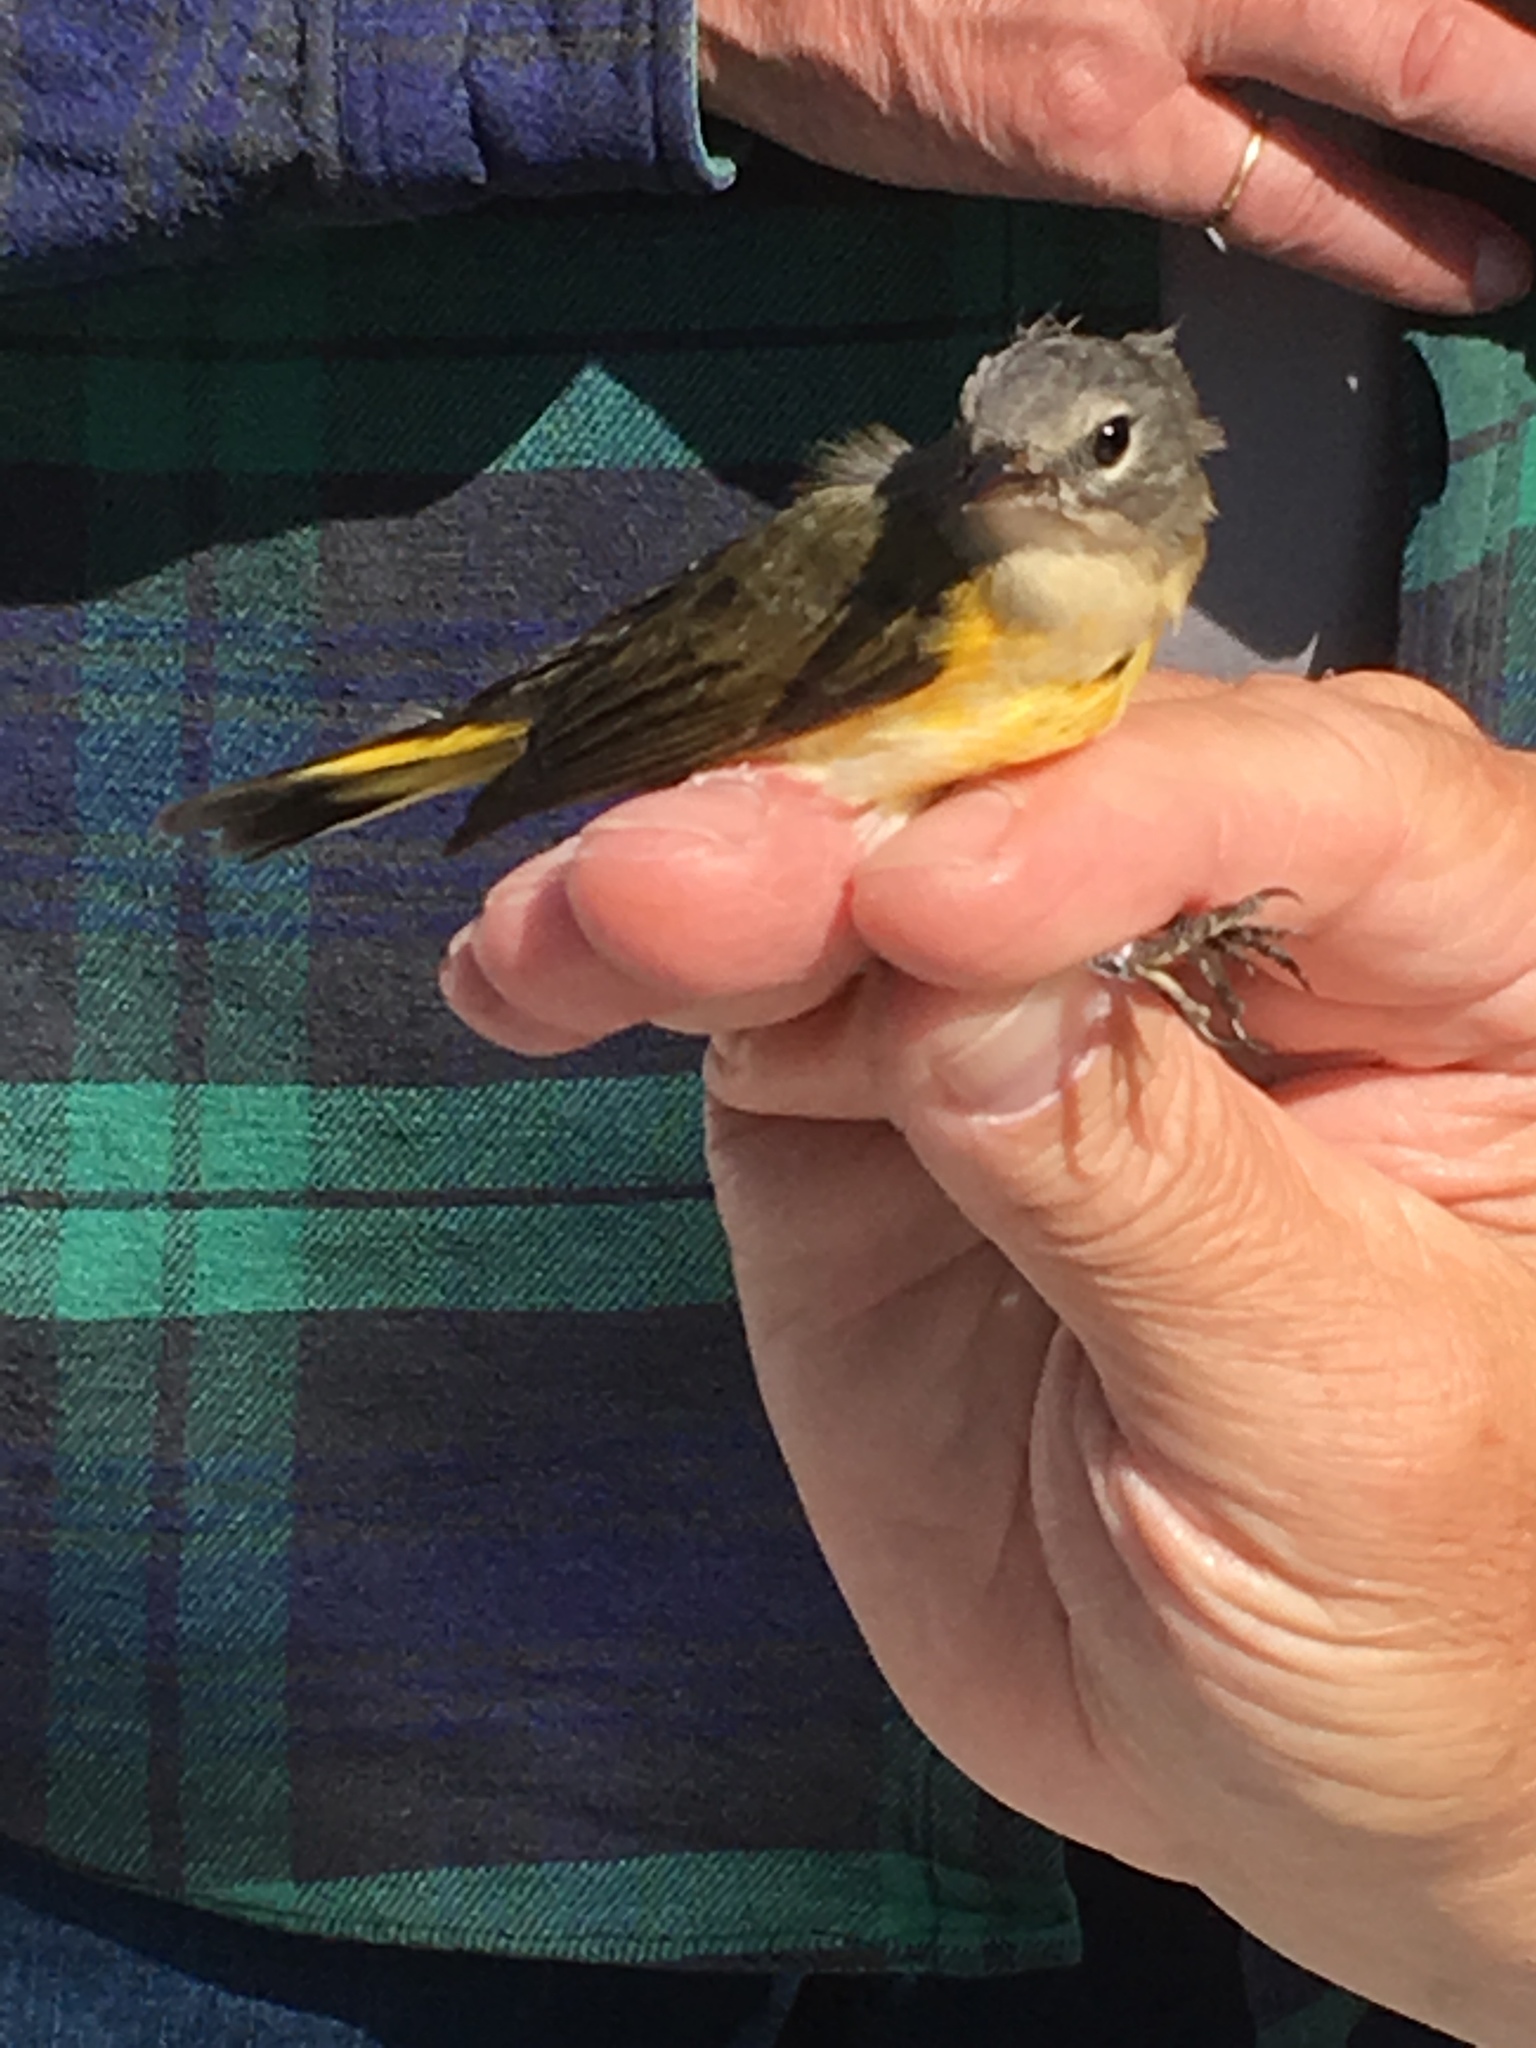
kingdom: Animalia
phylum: Chordata
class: Aves
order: Passeriformes
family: Parulidae
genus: Setophaga
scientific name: Setophaga ruticilla
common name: American redstart
